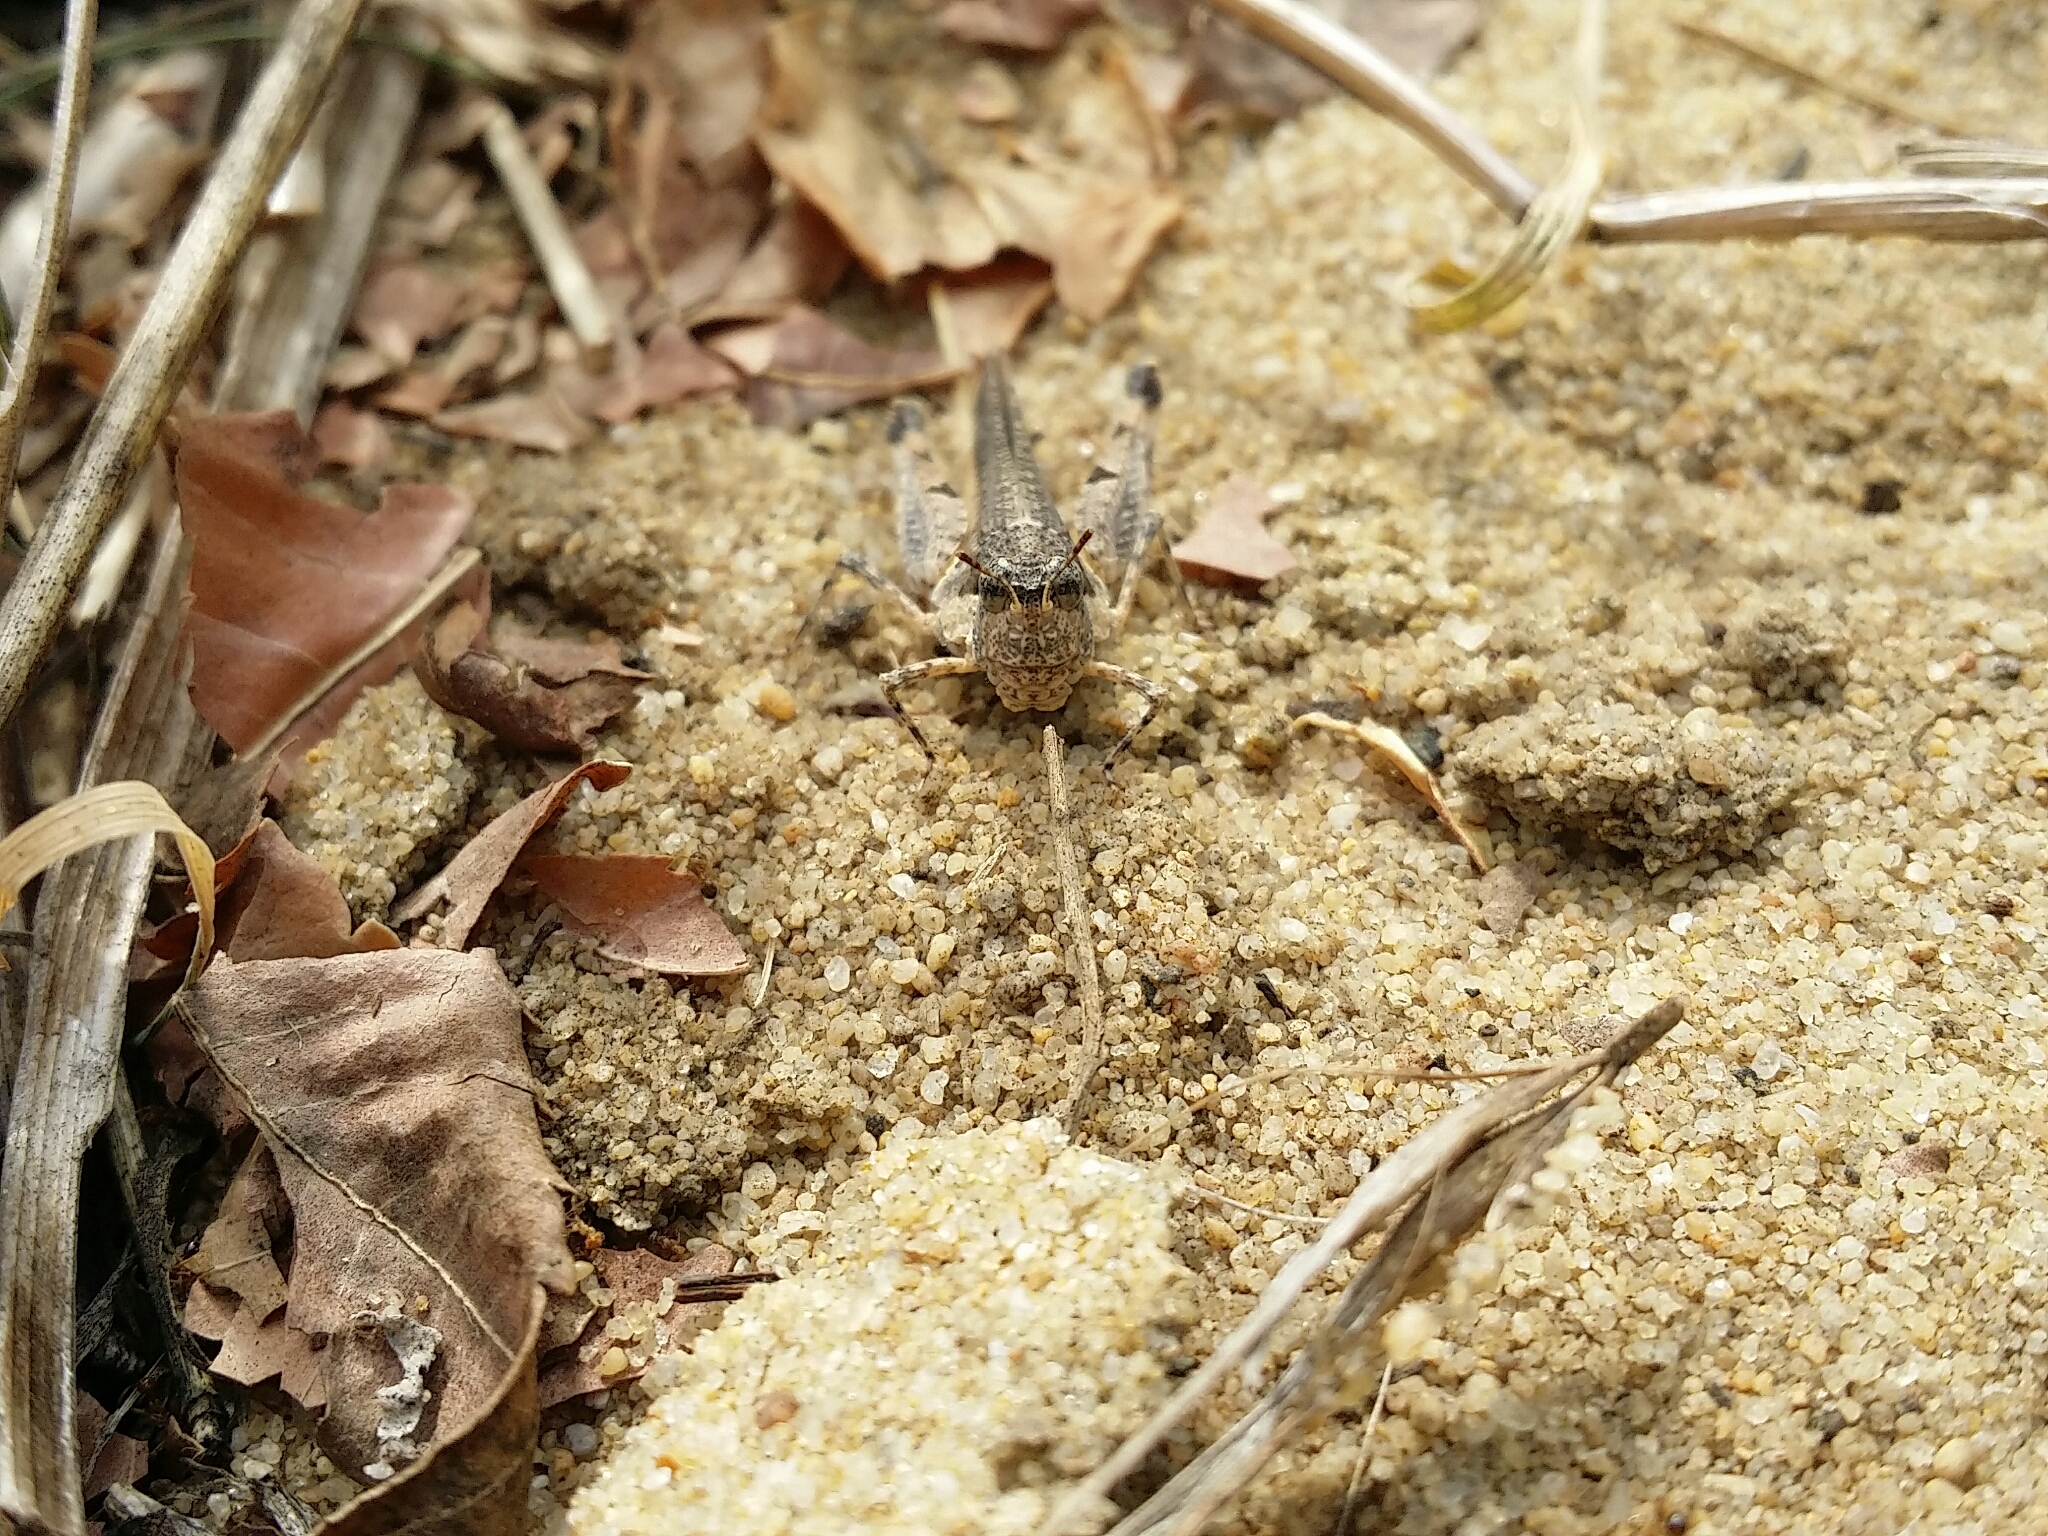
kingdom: Animalia
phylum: Arthropoda
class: Insecta
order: Orthoptera
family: Acrididae
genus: Pycnostictus
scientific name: Pycnostictus seriatus
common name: Common bandwing
